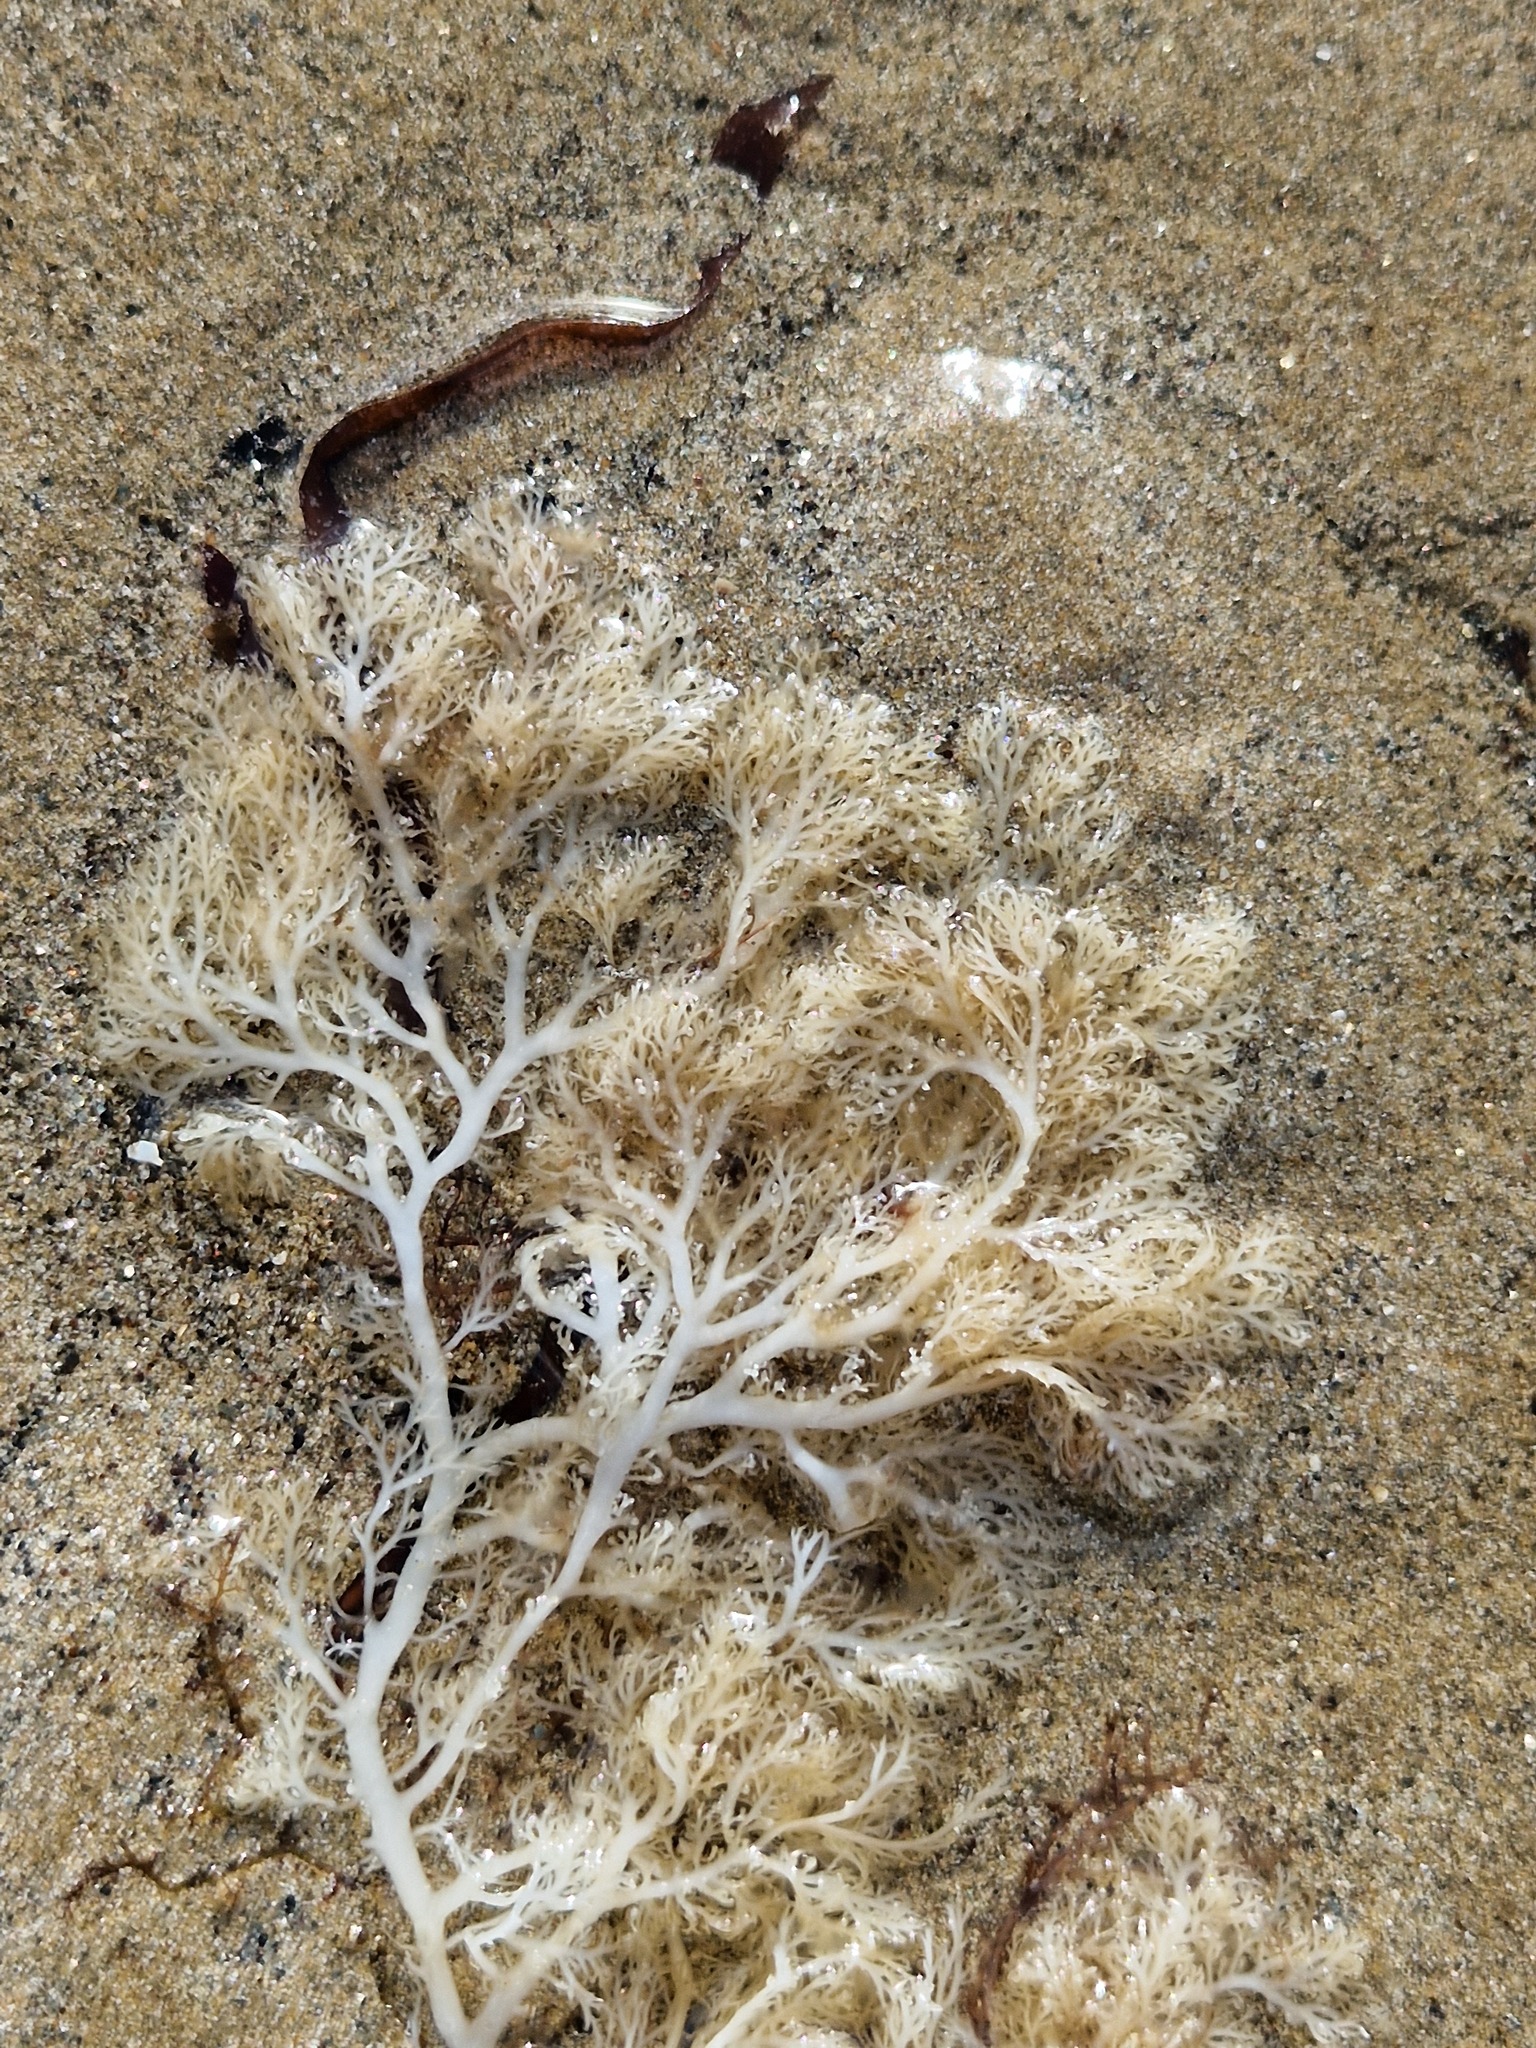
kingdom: Plantae
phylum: Rhodophyta
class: Florideophyceae
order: Gigartinales
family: Sphaerococcaceae
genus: Sphaerococcus
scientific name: Sphaerococcus coronopifolius
